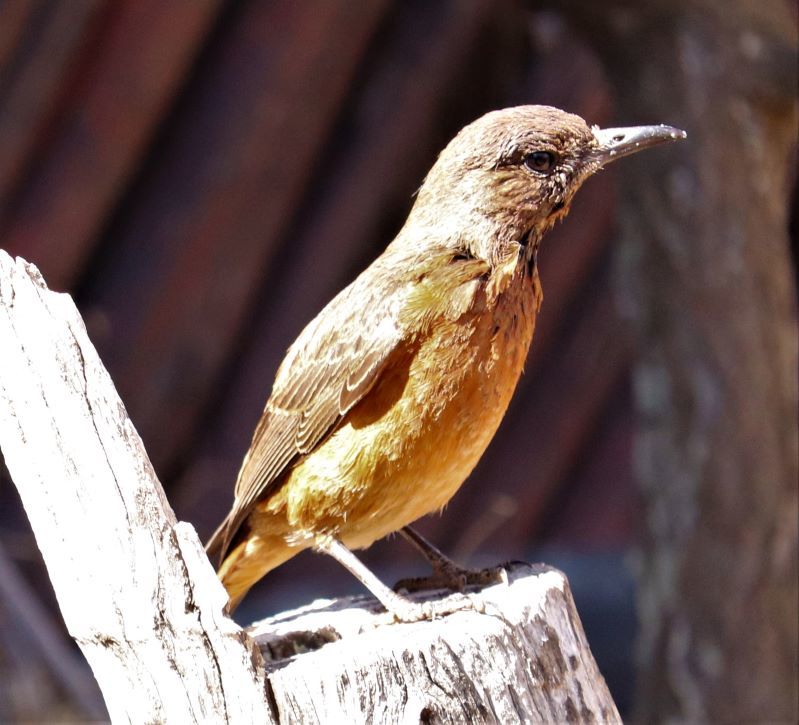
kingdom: Animalia
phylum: Chordata
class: Aves
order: Passeriformes
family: Muscicapidae
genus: Monticola
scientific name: Monticola rupestris
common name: Cape rock thrush
